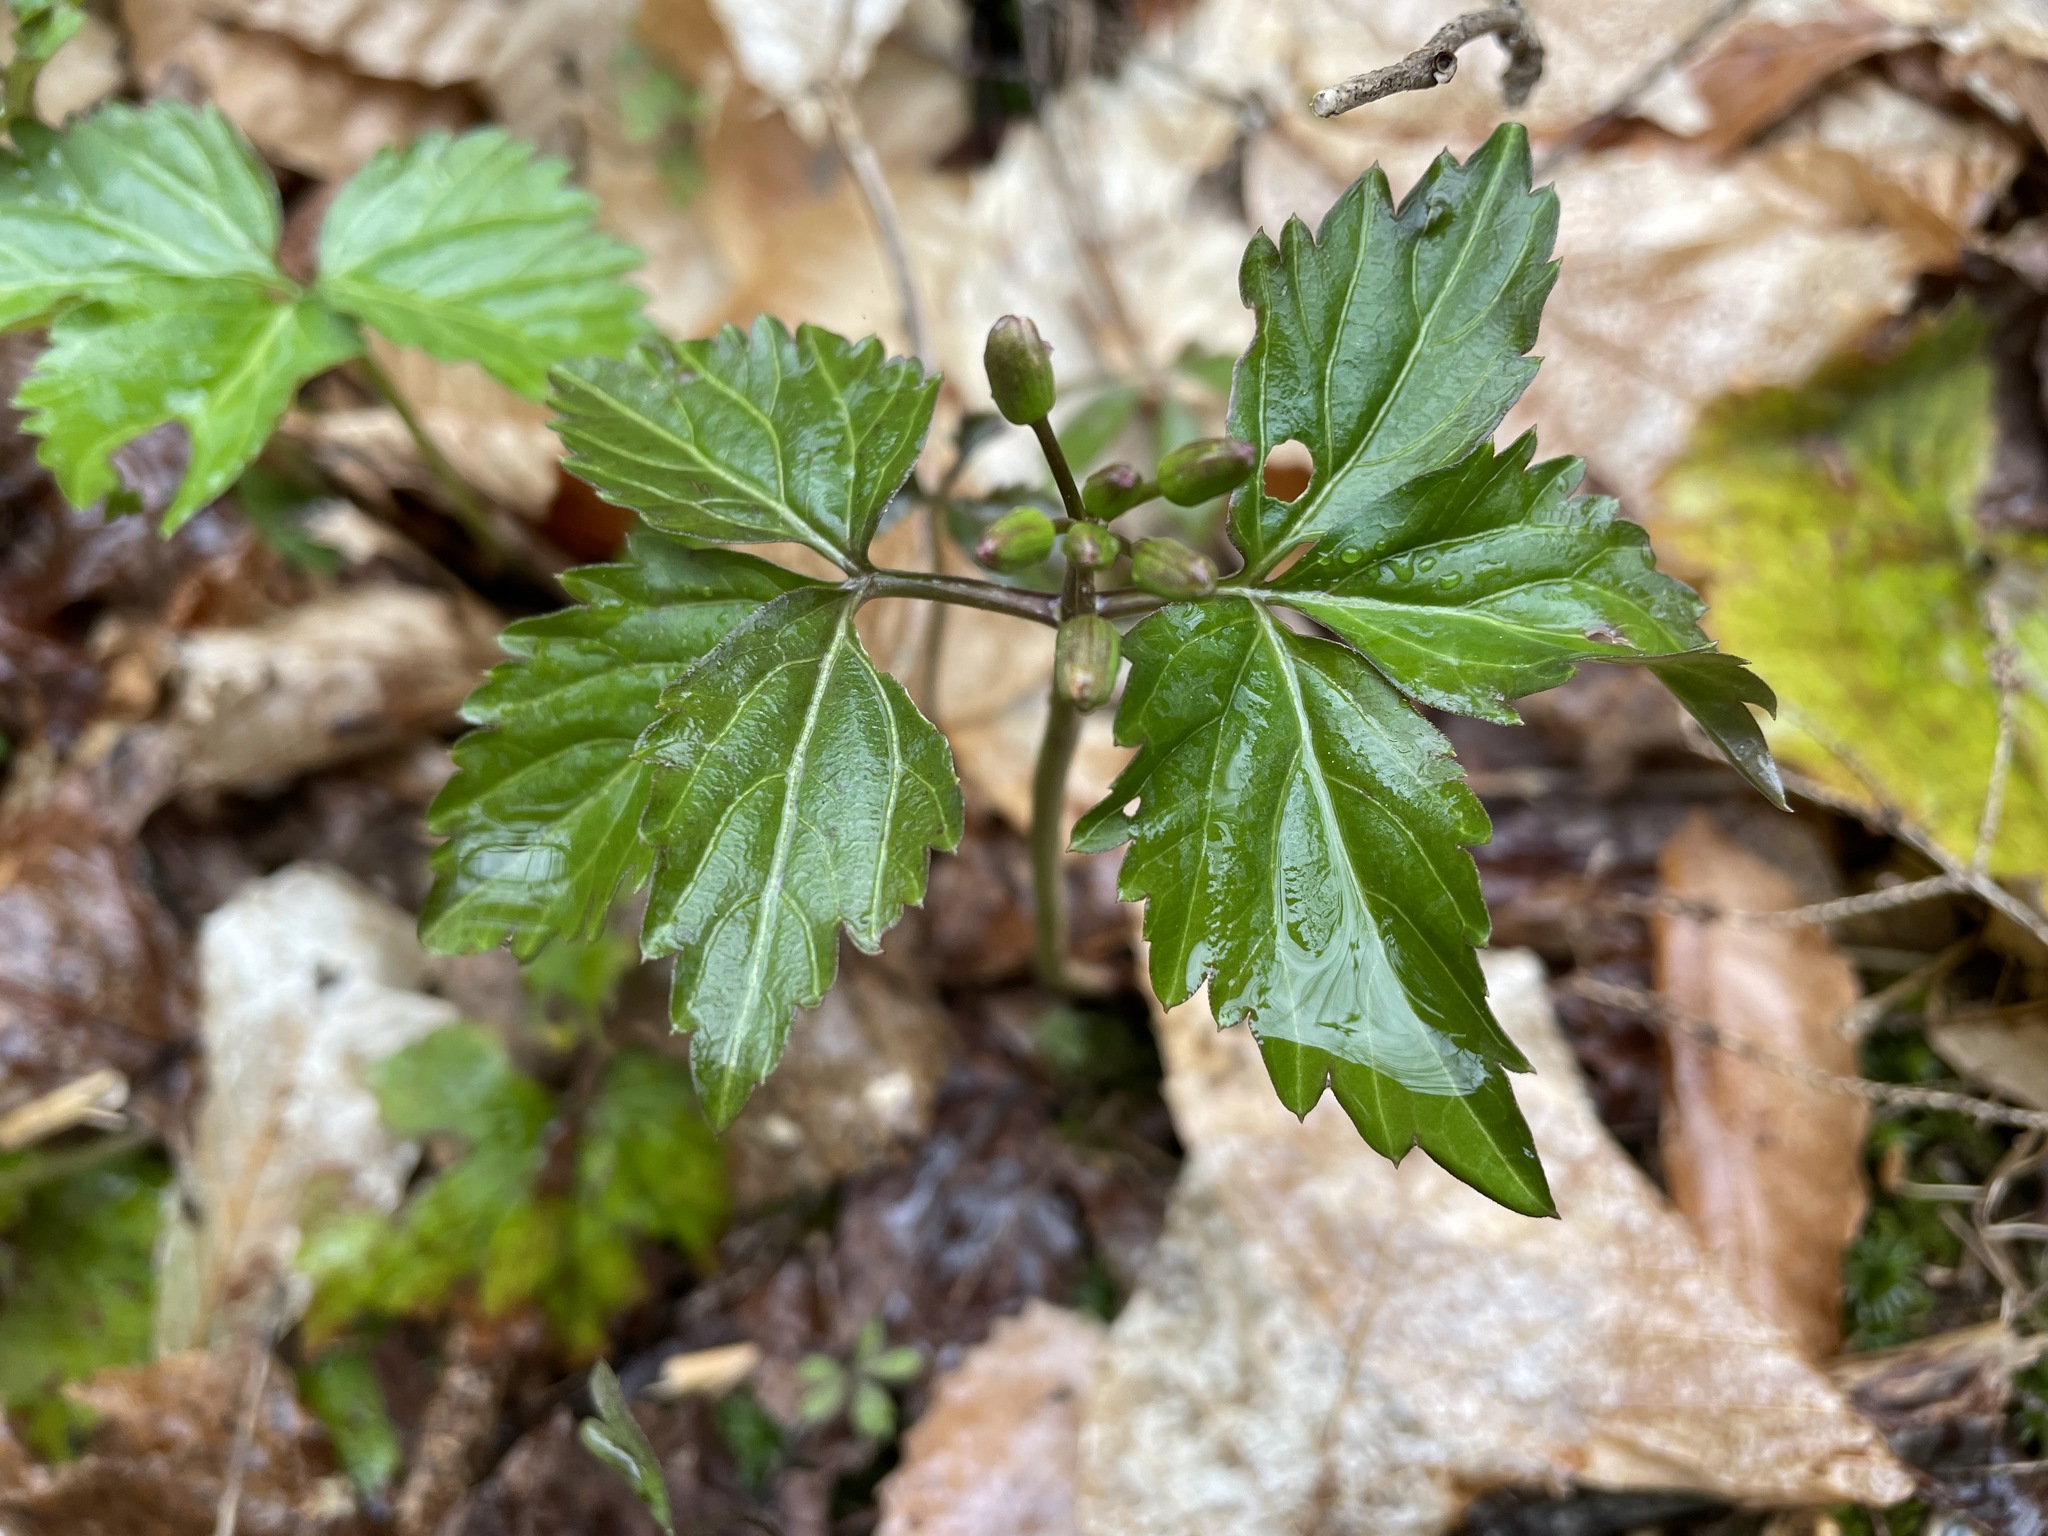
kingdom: Plantae
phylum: Tracheophyta
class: Magnoliopsida
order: Brassicales
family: Brassicaceae
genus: Cardamine
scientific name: Cardamine diphylla
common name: Broad-leaved toothwort
